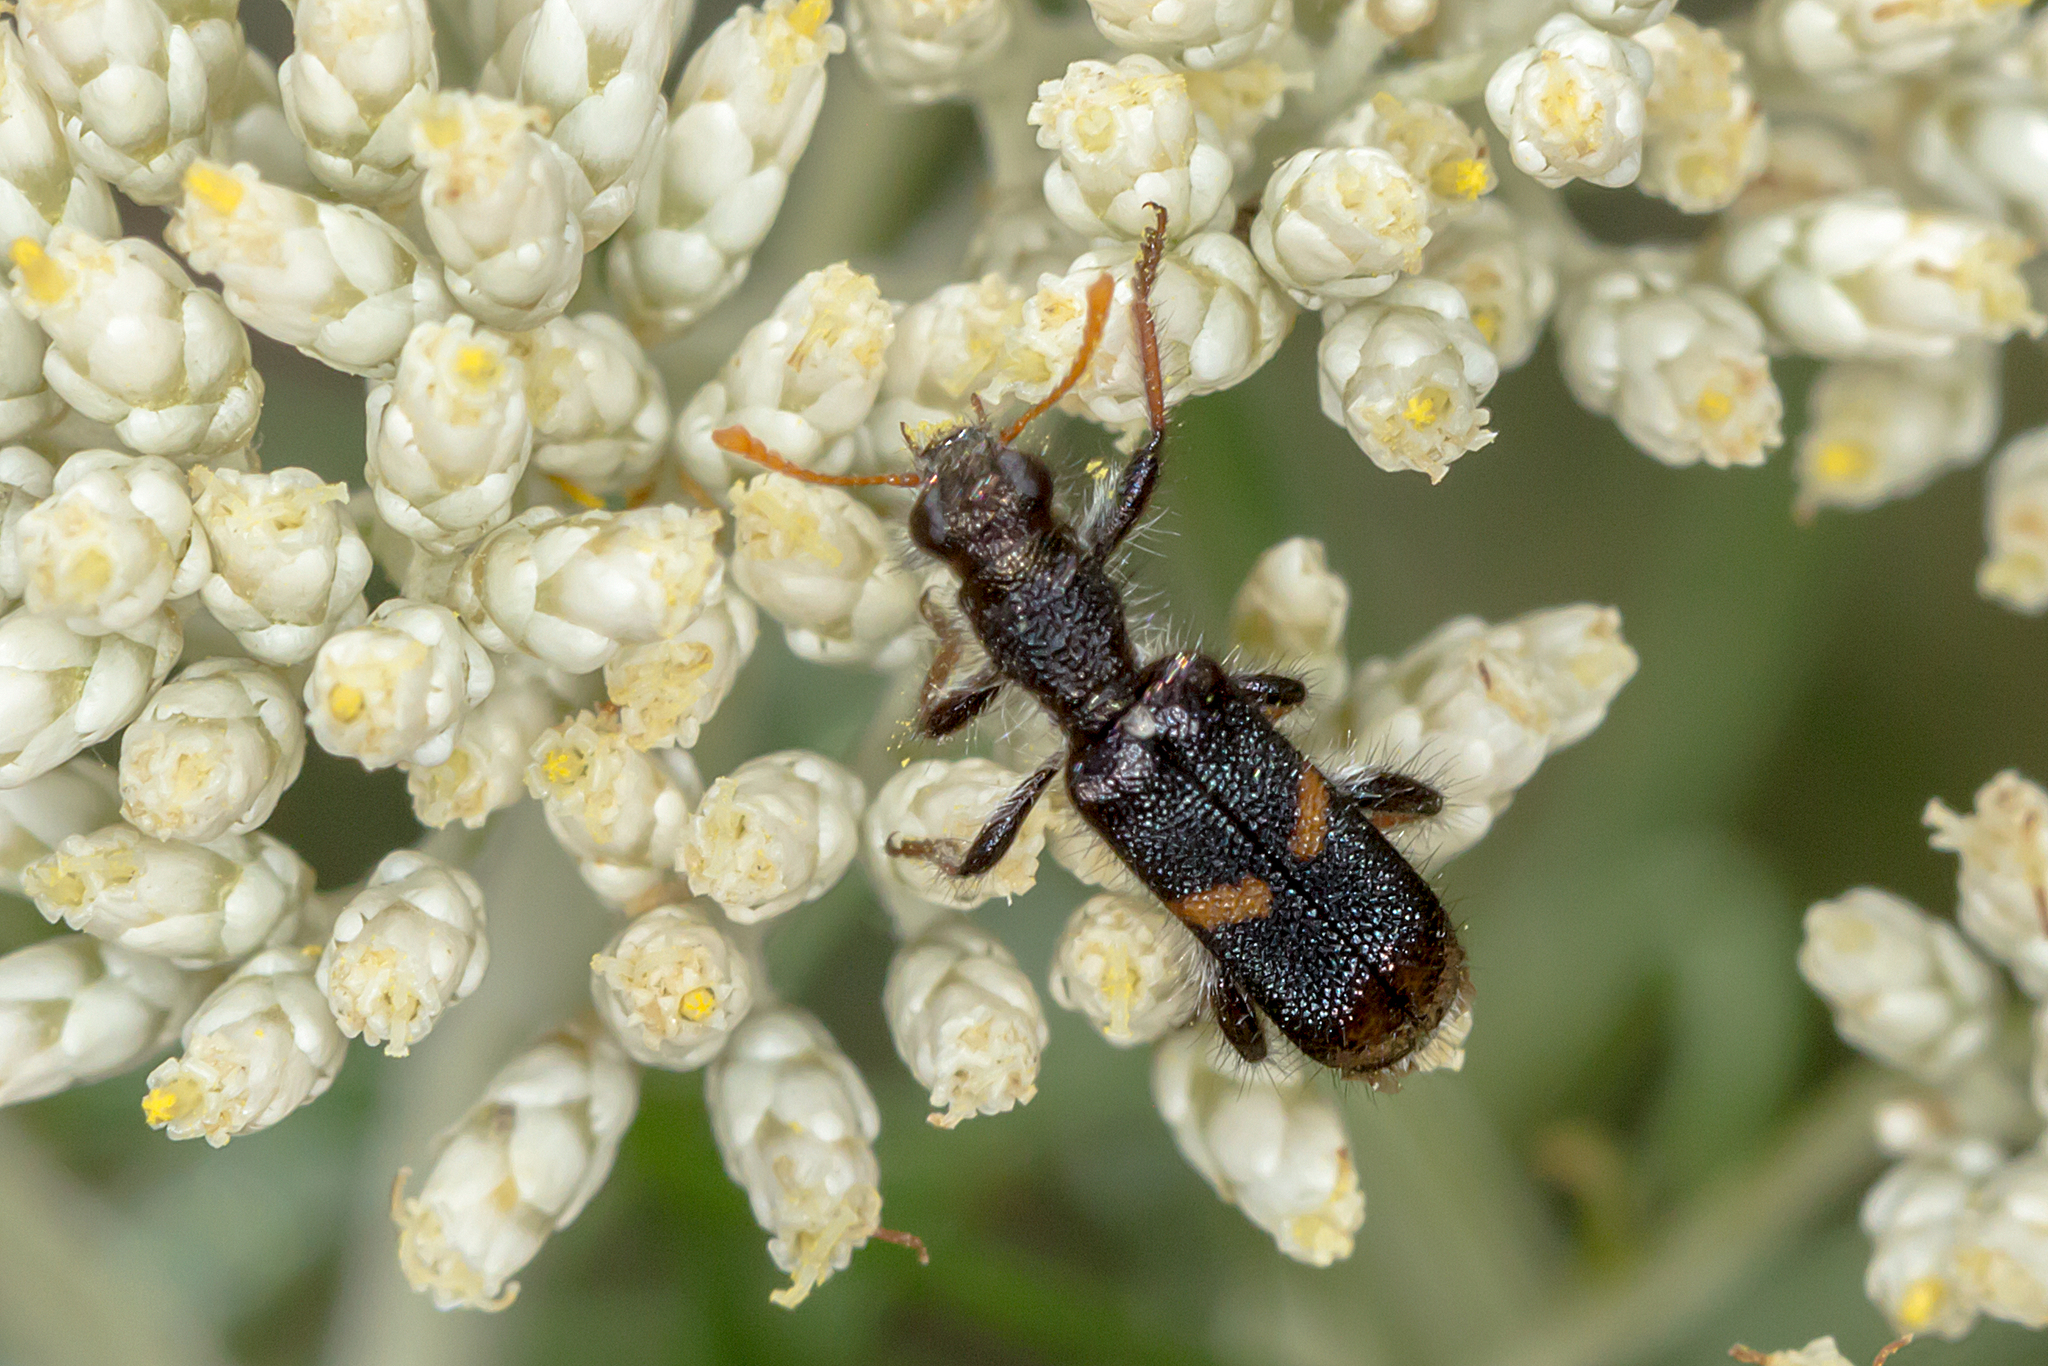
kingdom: Animalia
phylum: Arthropoda
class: Insecta
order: Coleoptera
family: Cleridae
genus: Eleale
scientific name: Eleale
